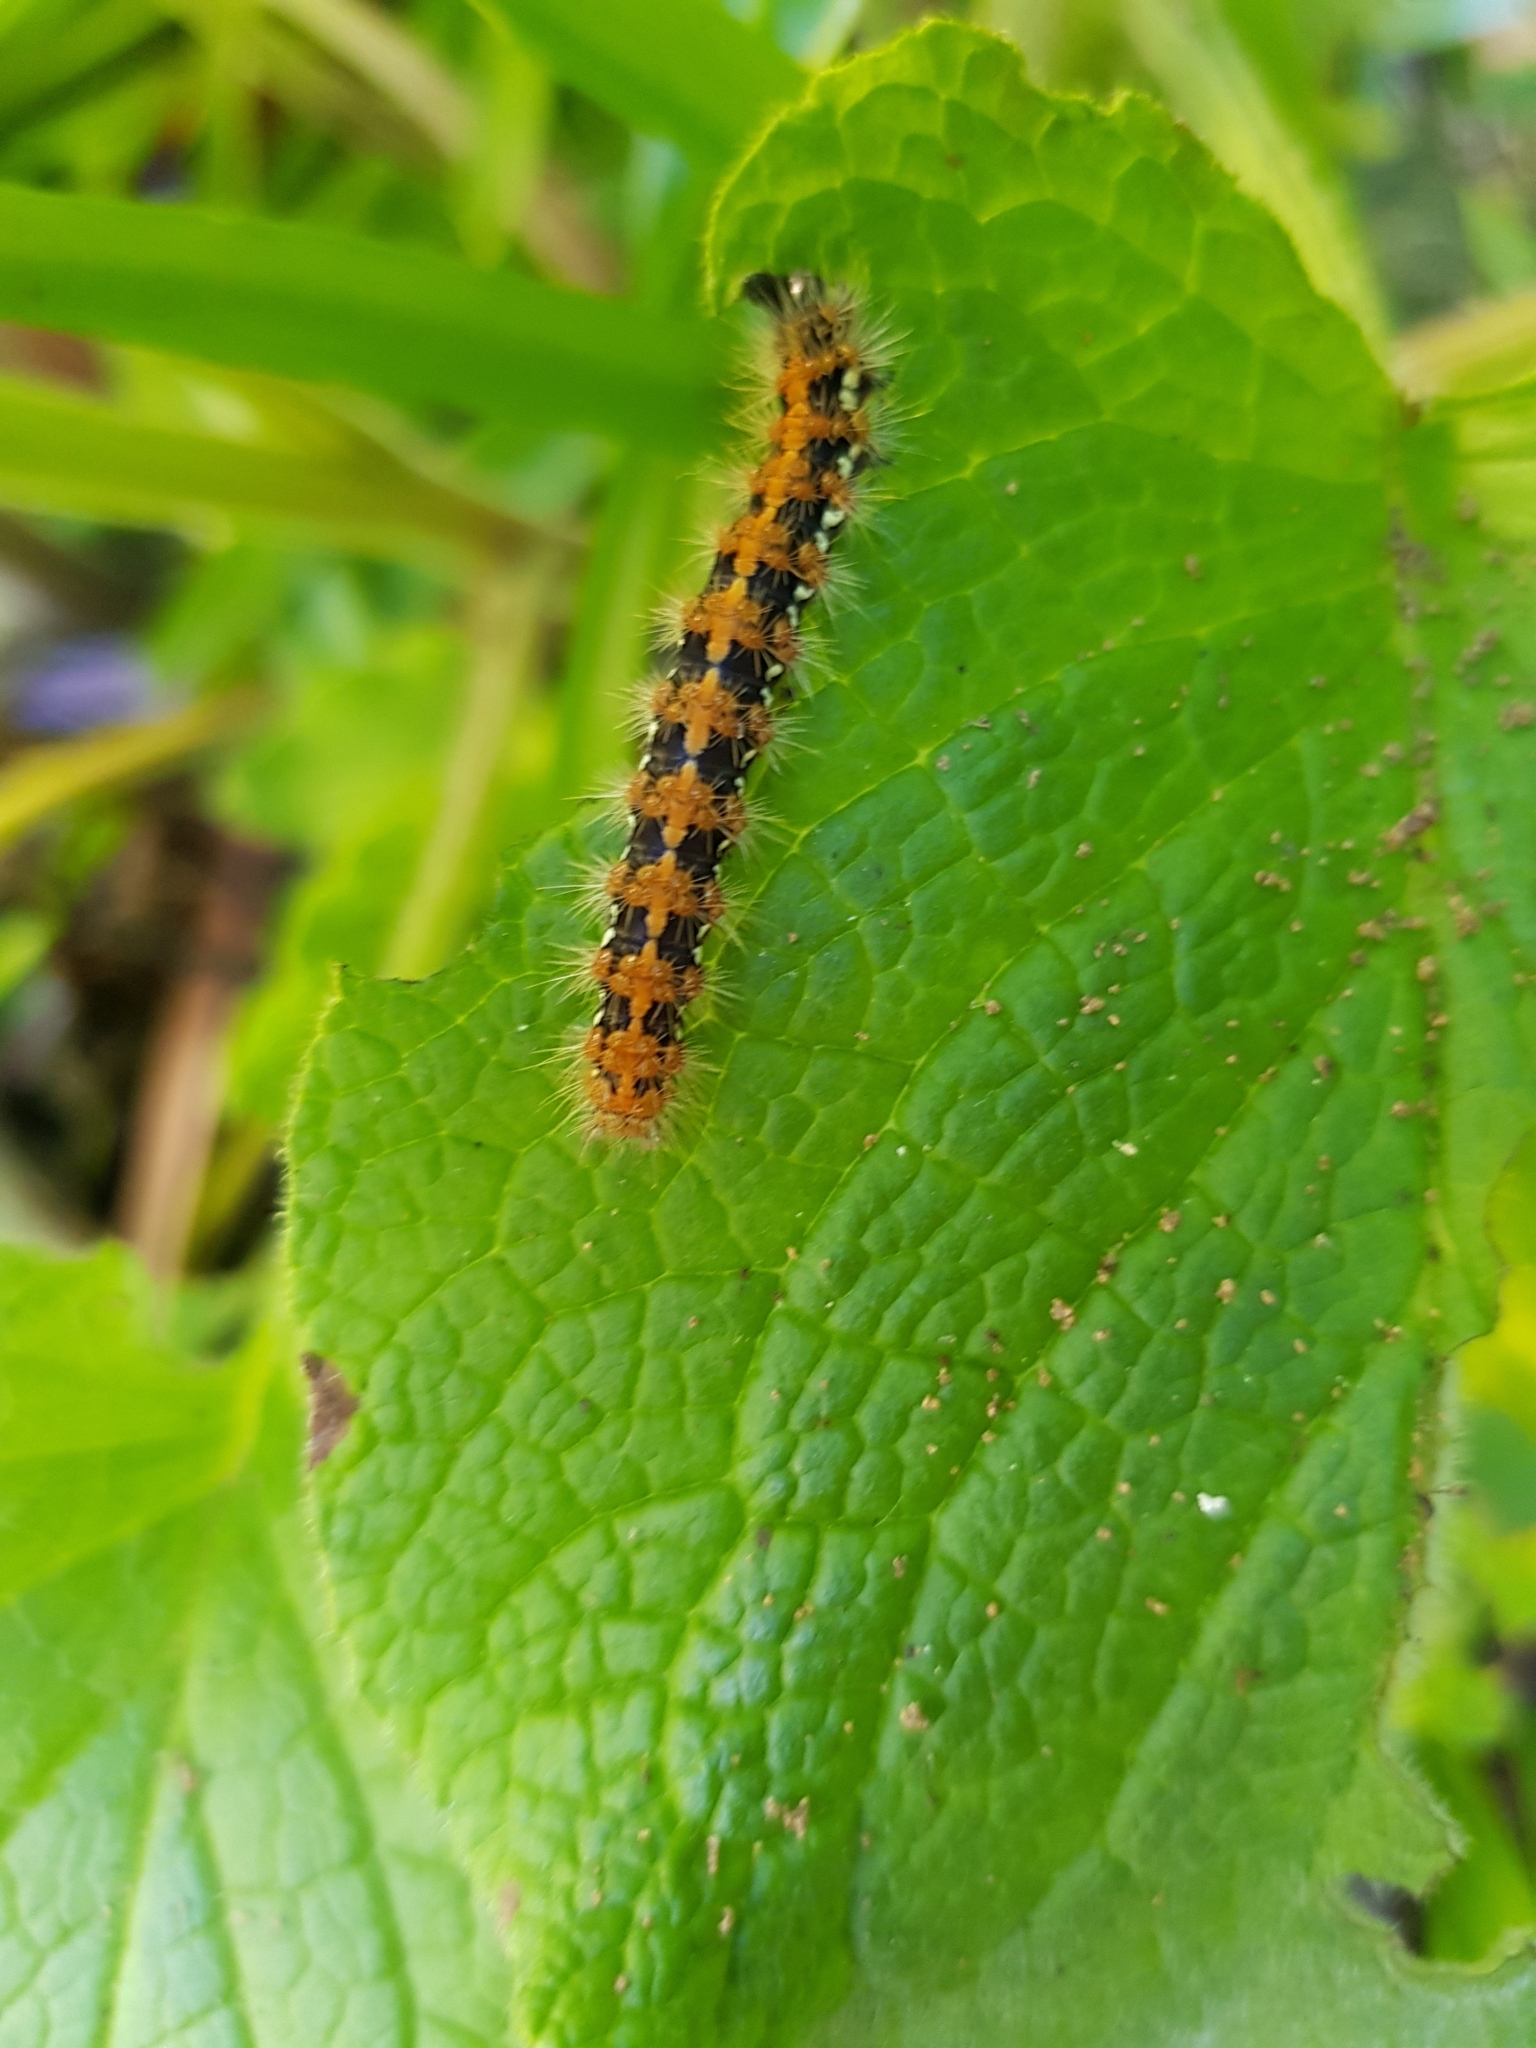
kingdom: Animalia
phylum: Arthropoda
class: Insecta
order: Lepidoptera
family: Erebidae
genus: Euplagia
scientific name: Euplagia quadripunctaria
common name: Jersey tiger
